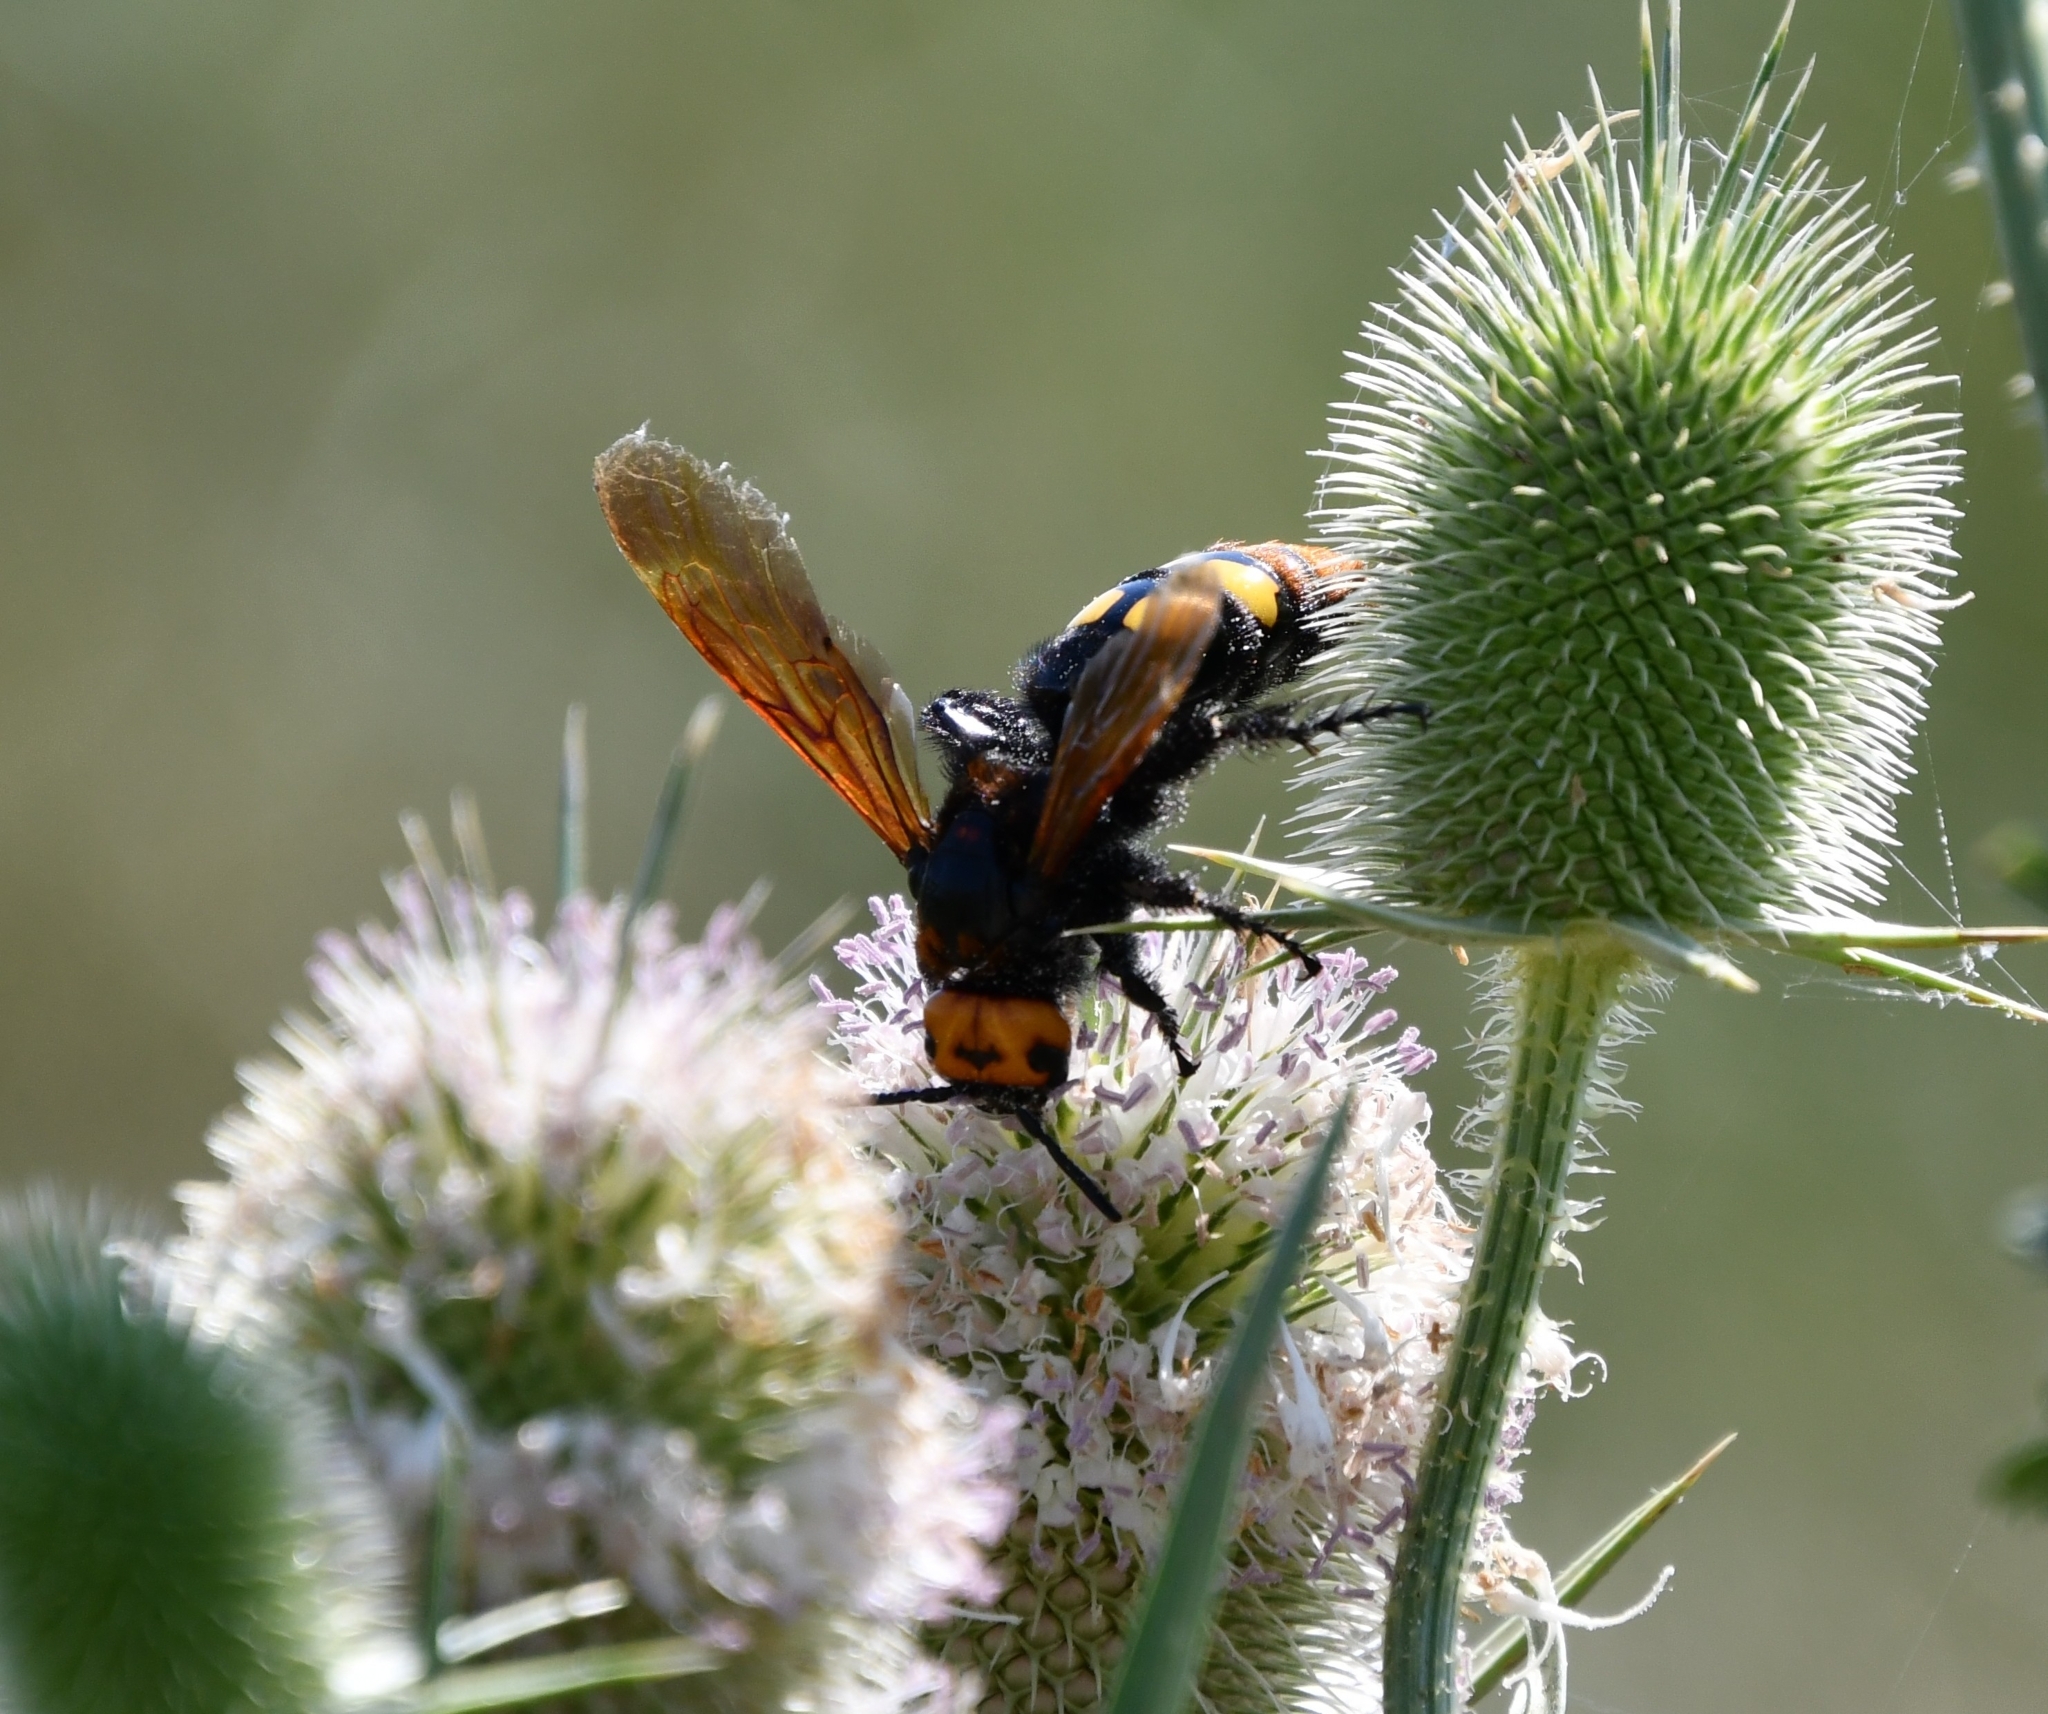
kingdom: Animalia
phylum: Arthropoda
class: Insecta
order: Hymenoptera
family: Scoliidae
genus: Megascolia
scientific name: Megascolia maculata
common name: Mammoth wasp
